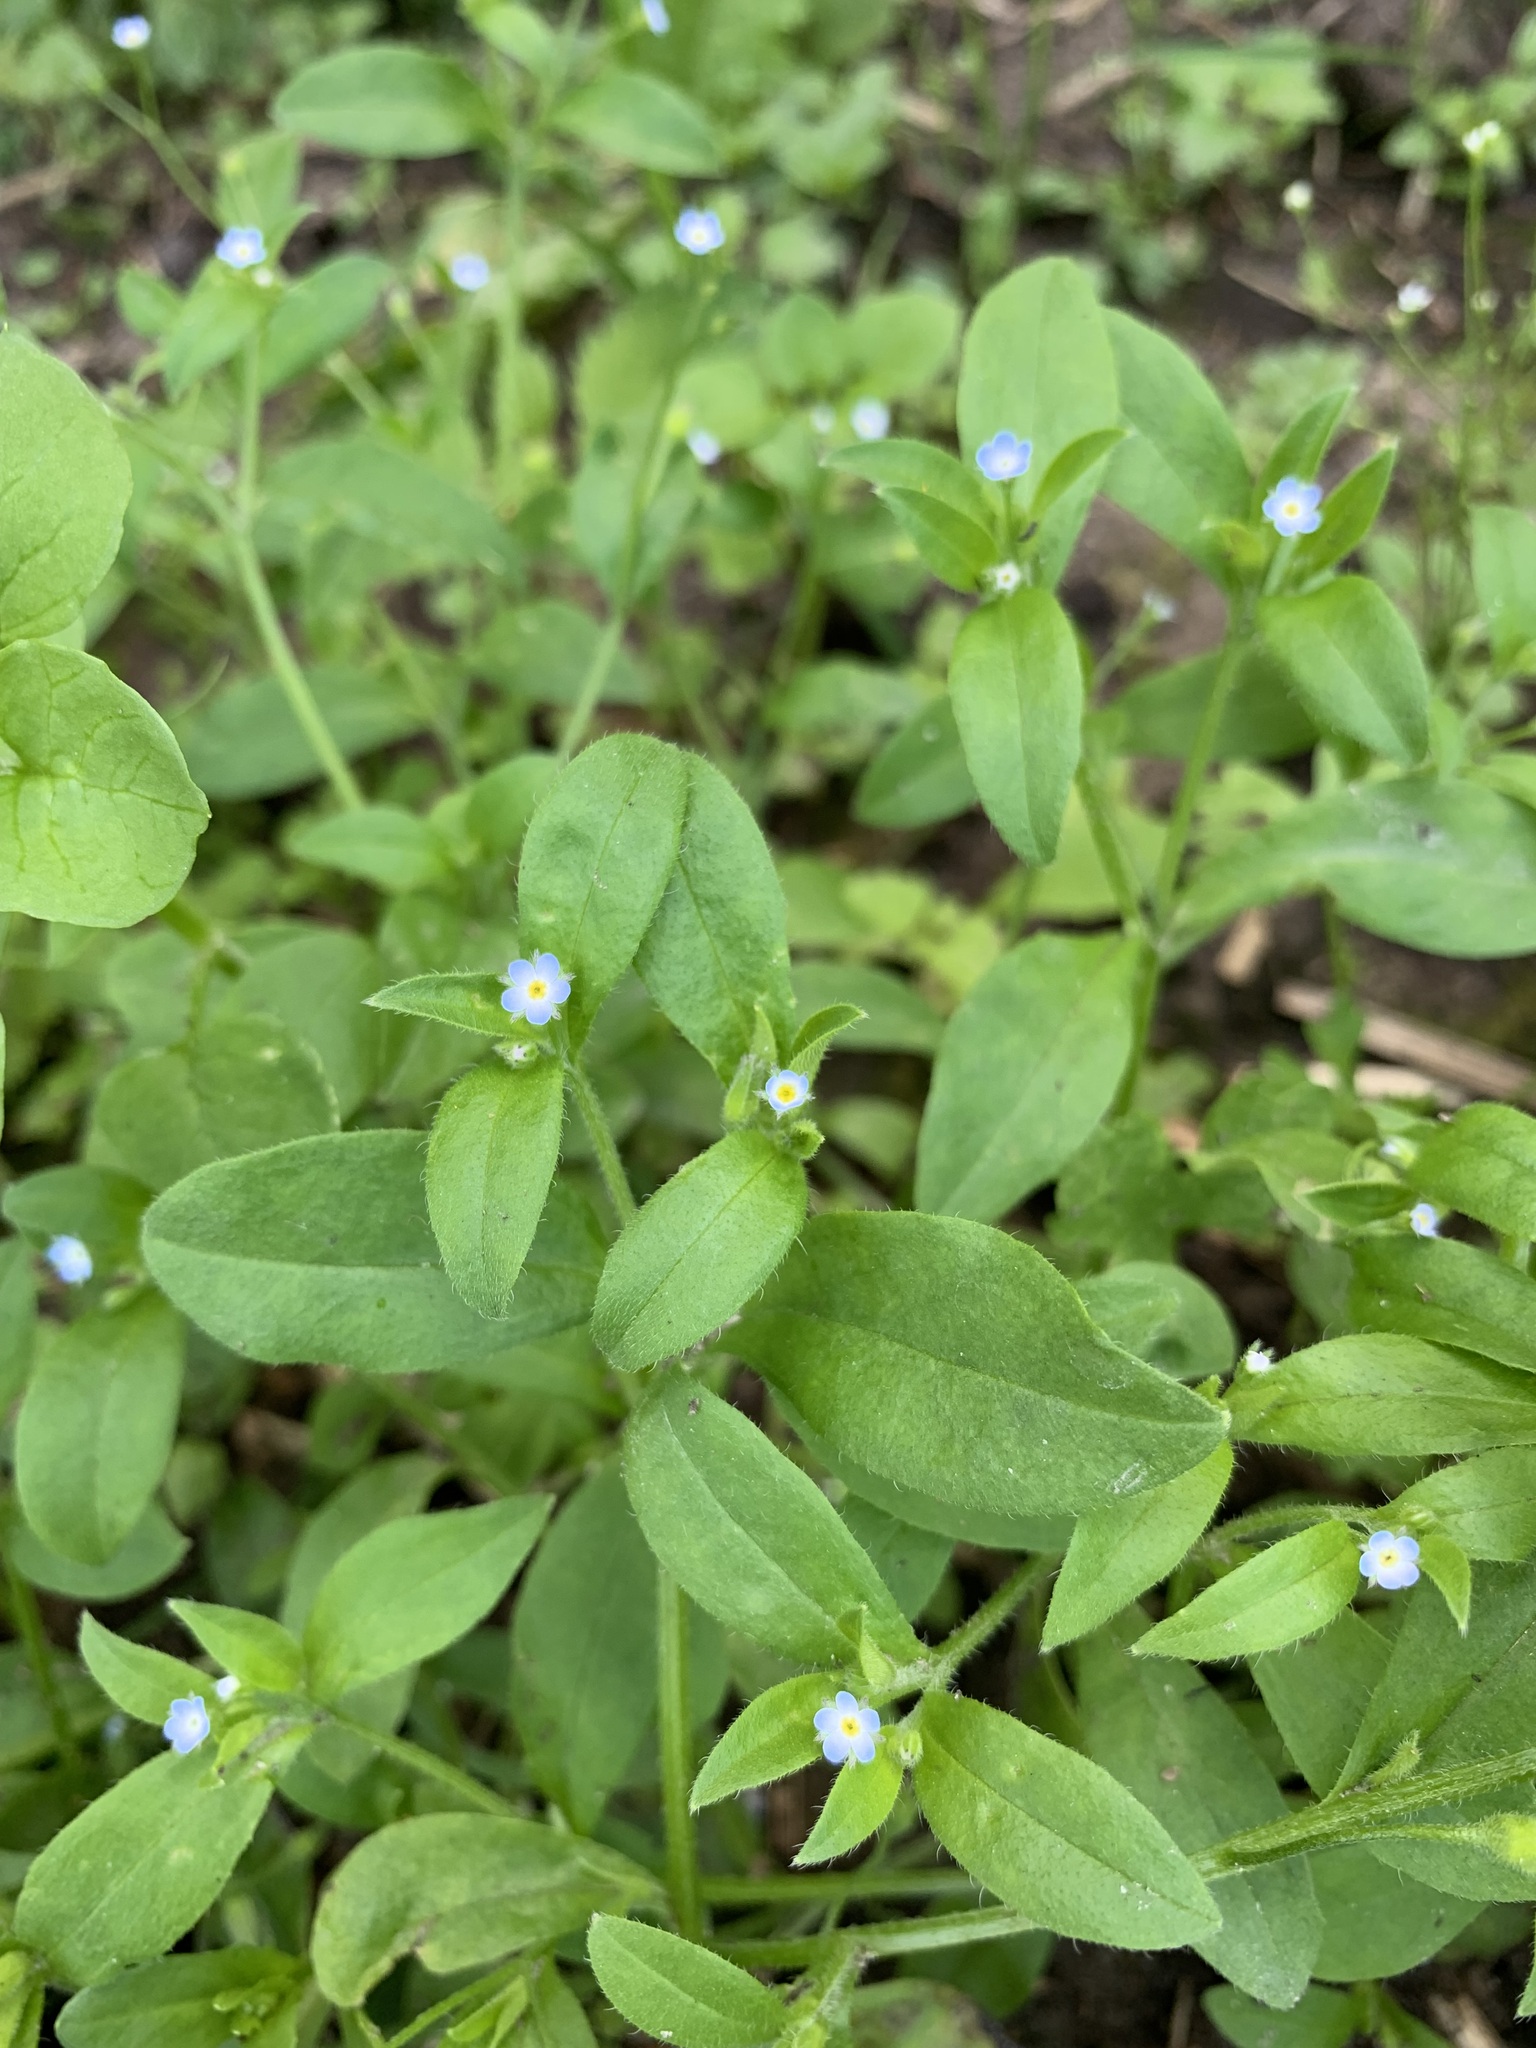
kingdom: Plantae
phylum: Tracheophyta
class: Magnoliopsida
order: Boraginales
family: Boraginaceae
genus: Myosotis
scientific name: Myosotis sparsiflora
